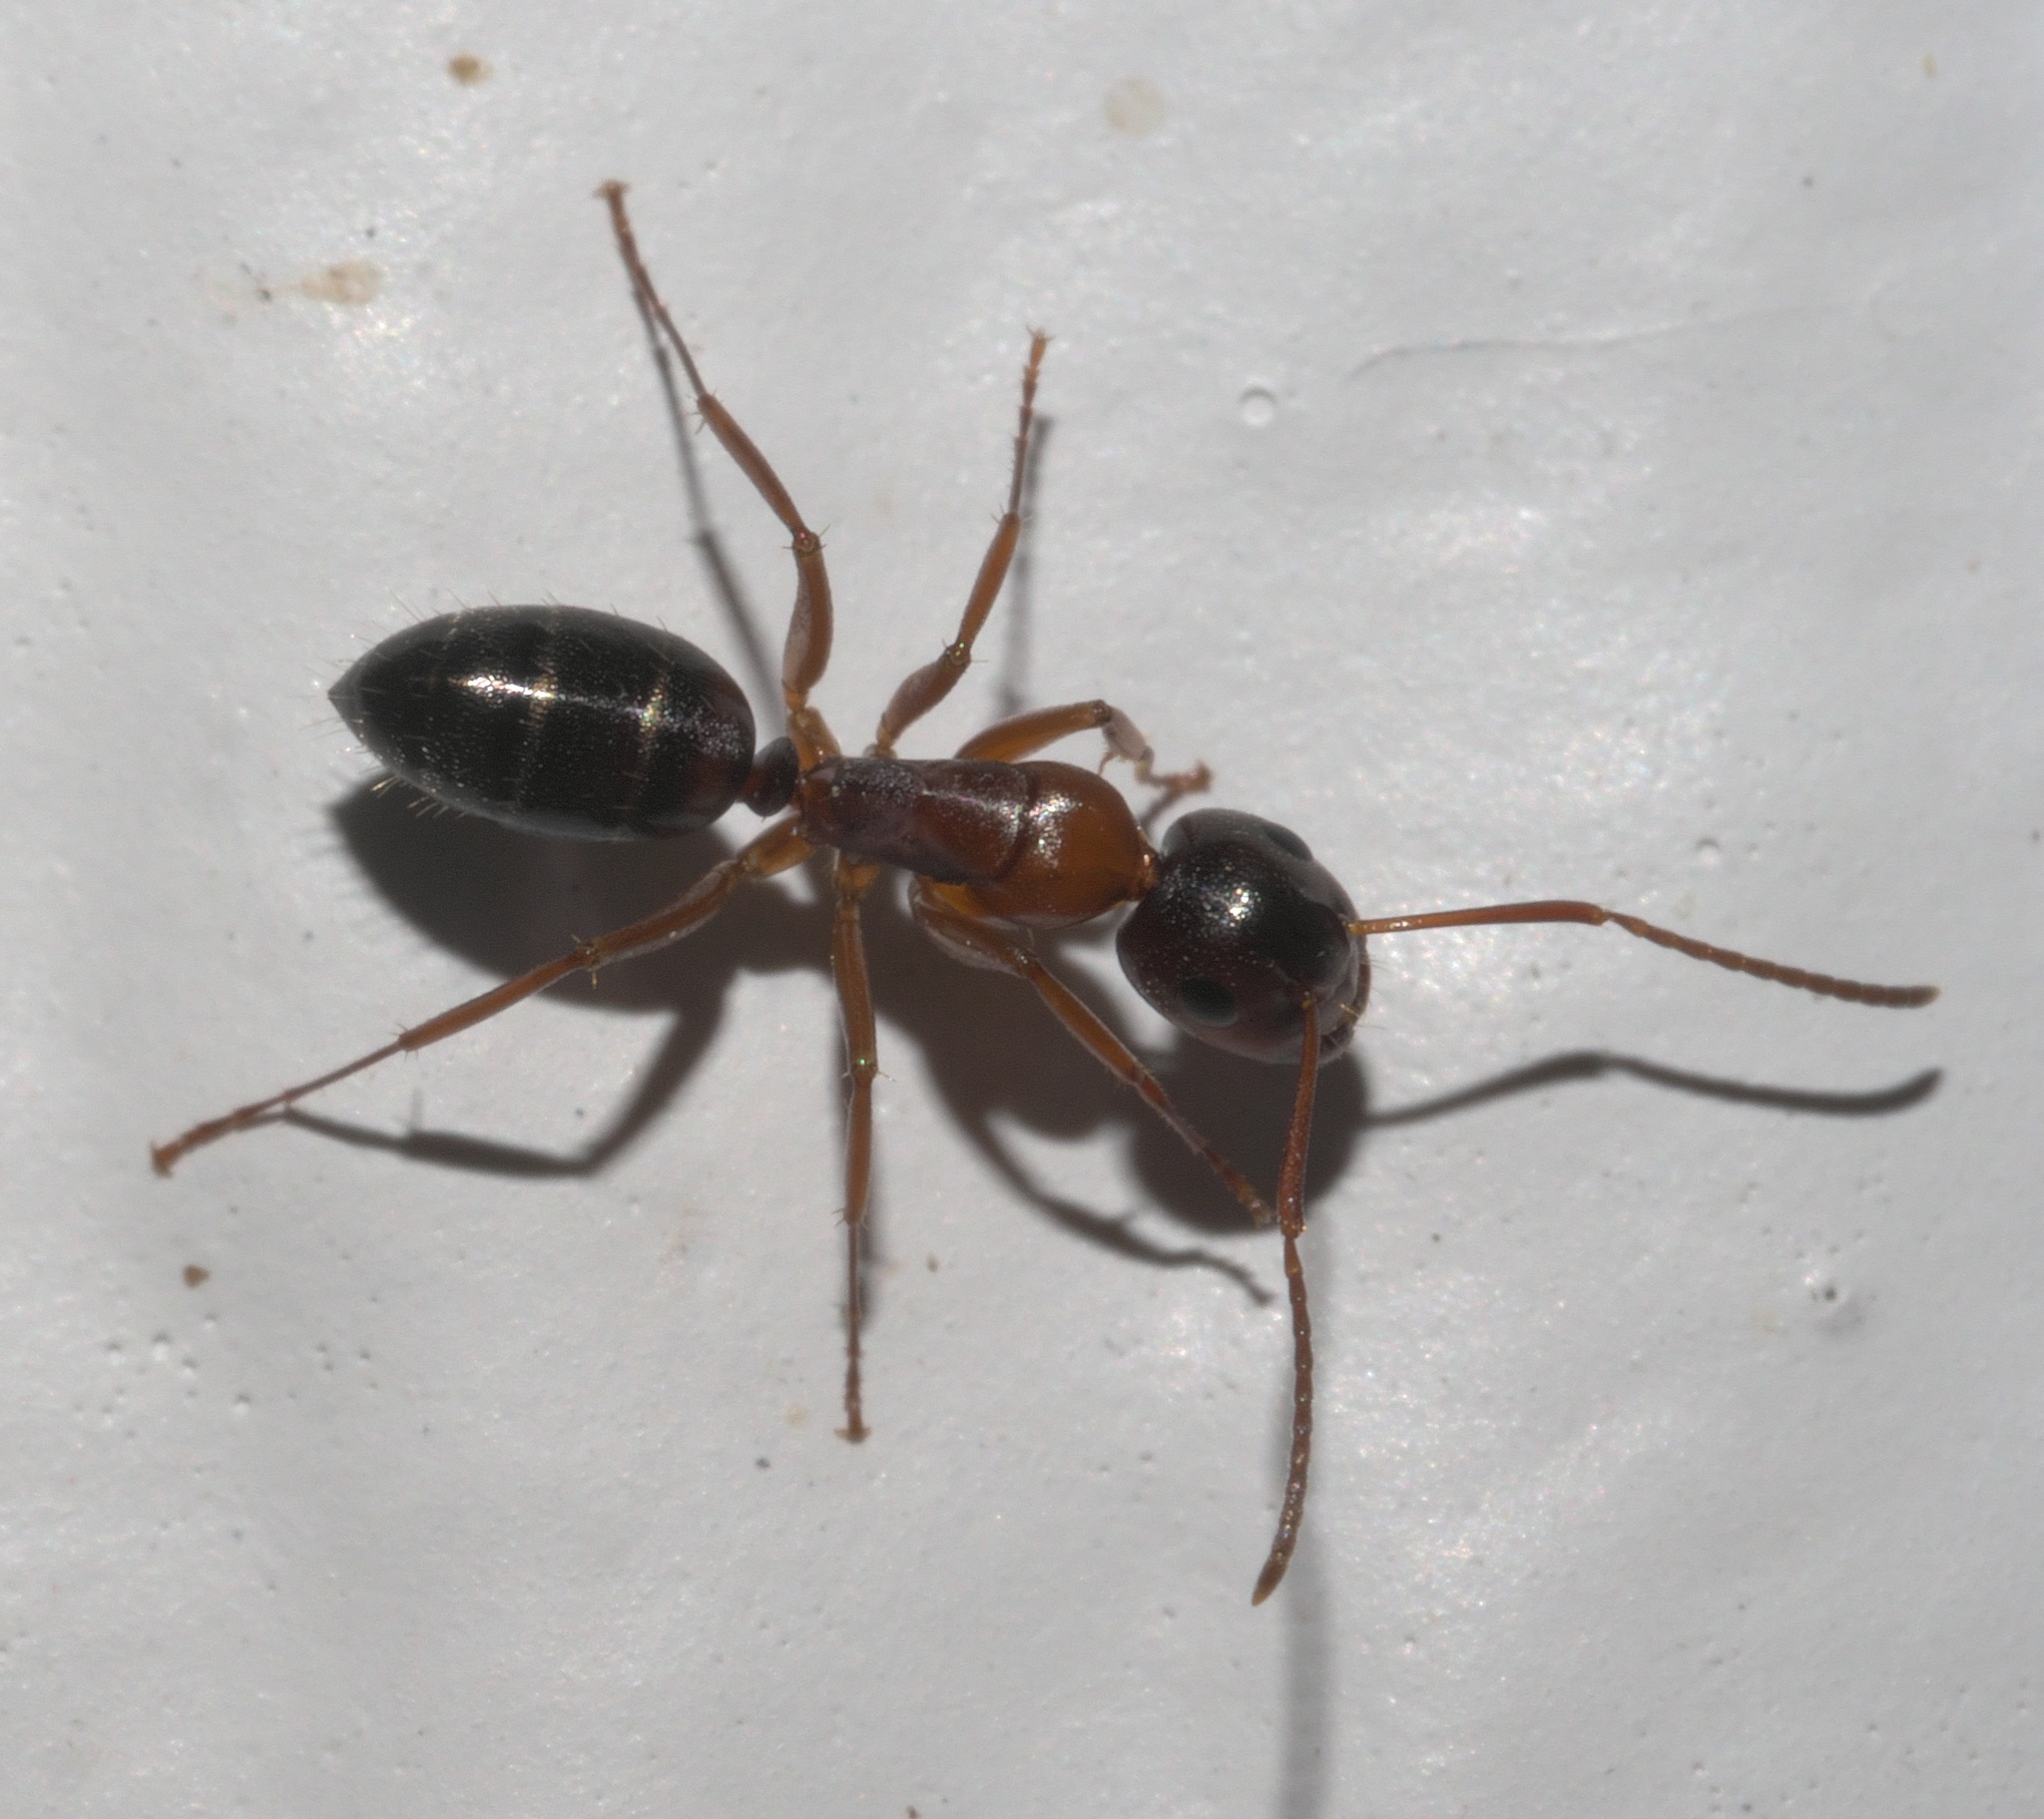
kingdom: Animalia
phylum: Arthropoda
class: Insecta
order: Hymenoptera
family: Formicidae
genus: Camponotus
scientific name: Camponotus nearcticus
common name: Smaller carpenter ant
